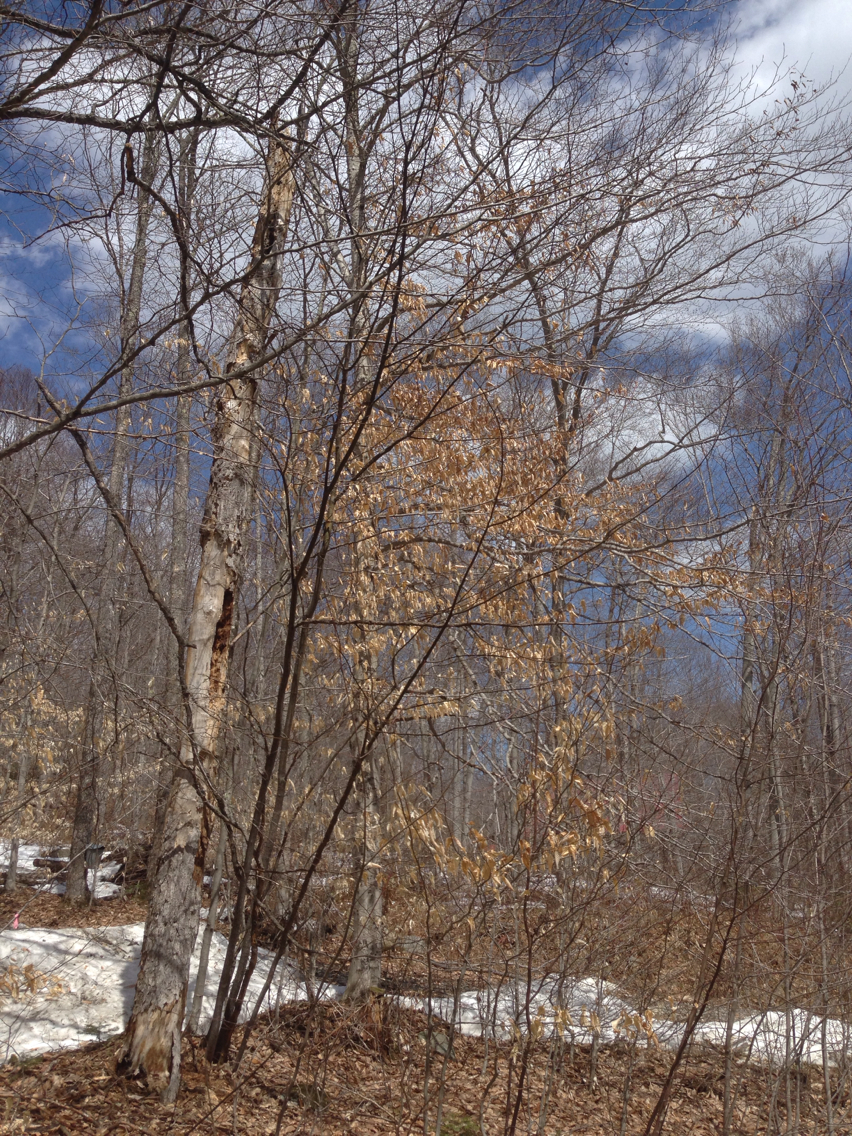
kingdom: Plantae
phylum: Tracheophyta
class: Magnoliopsida
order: Fagales
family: Fagaceae
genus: Fagus
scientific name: Fagus grandifolia
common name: American beech
